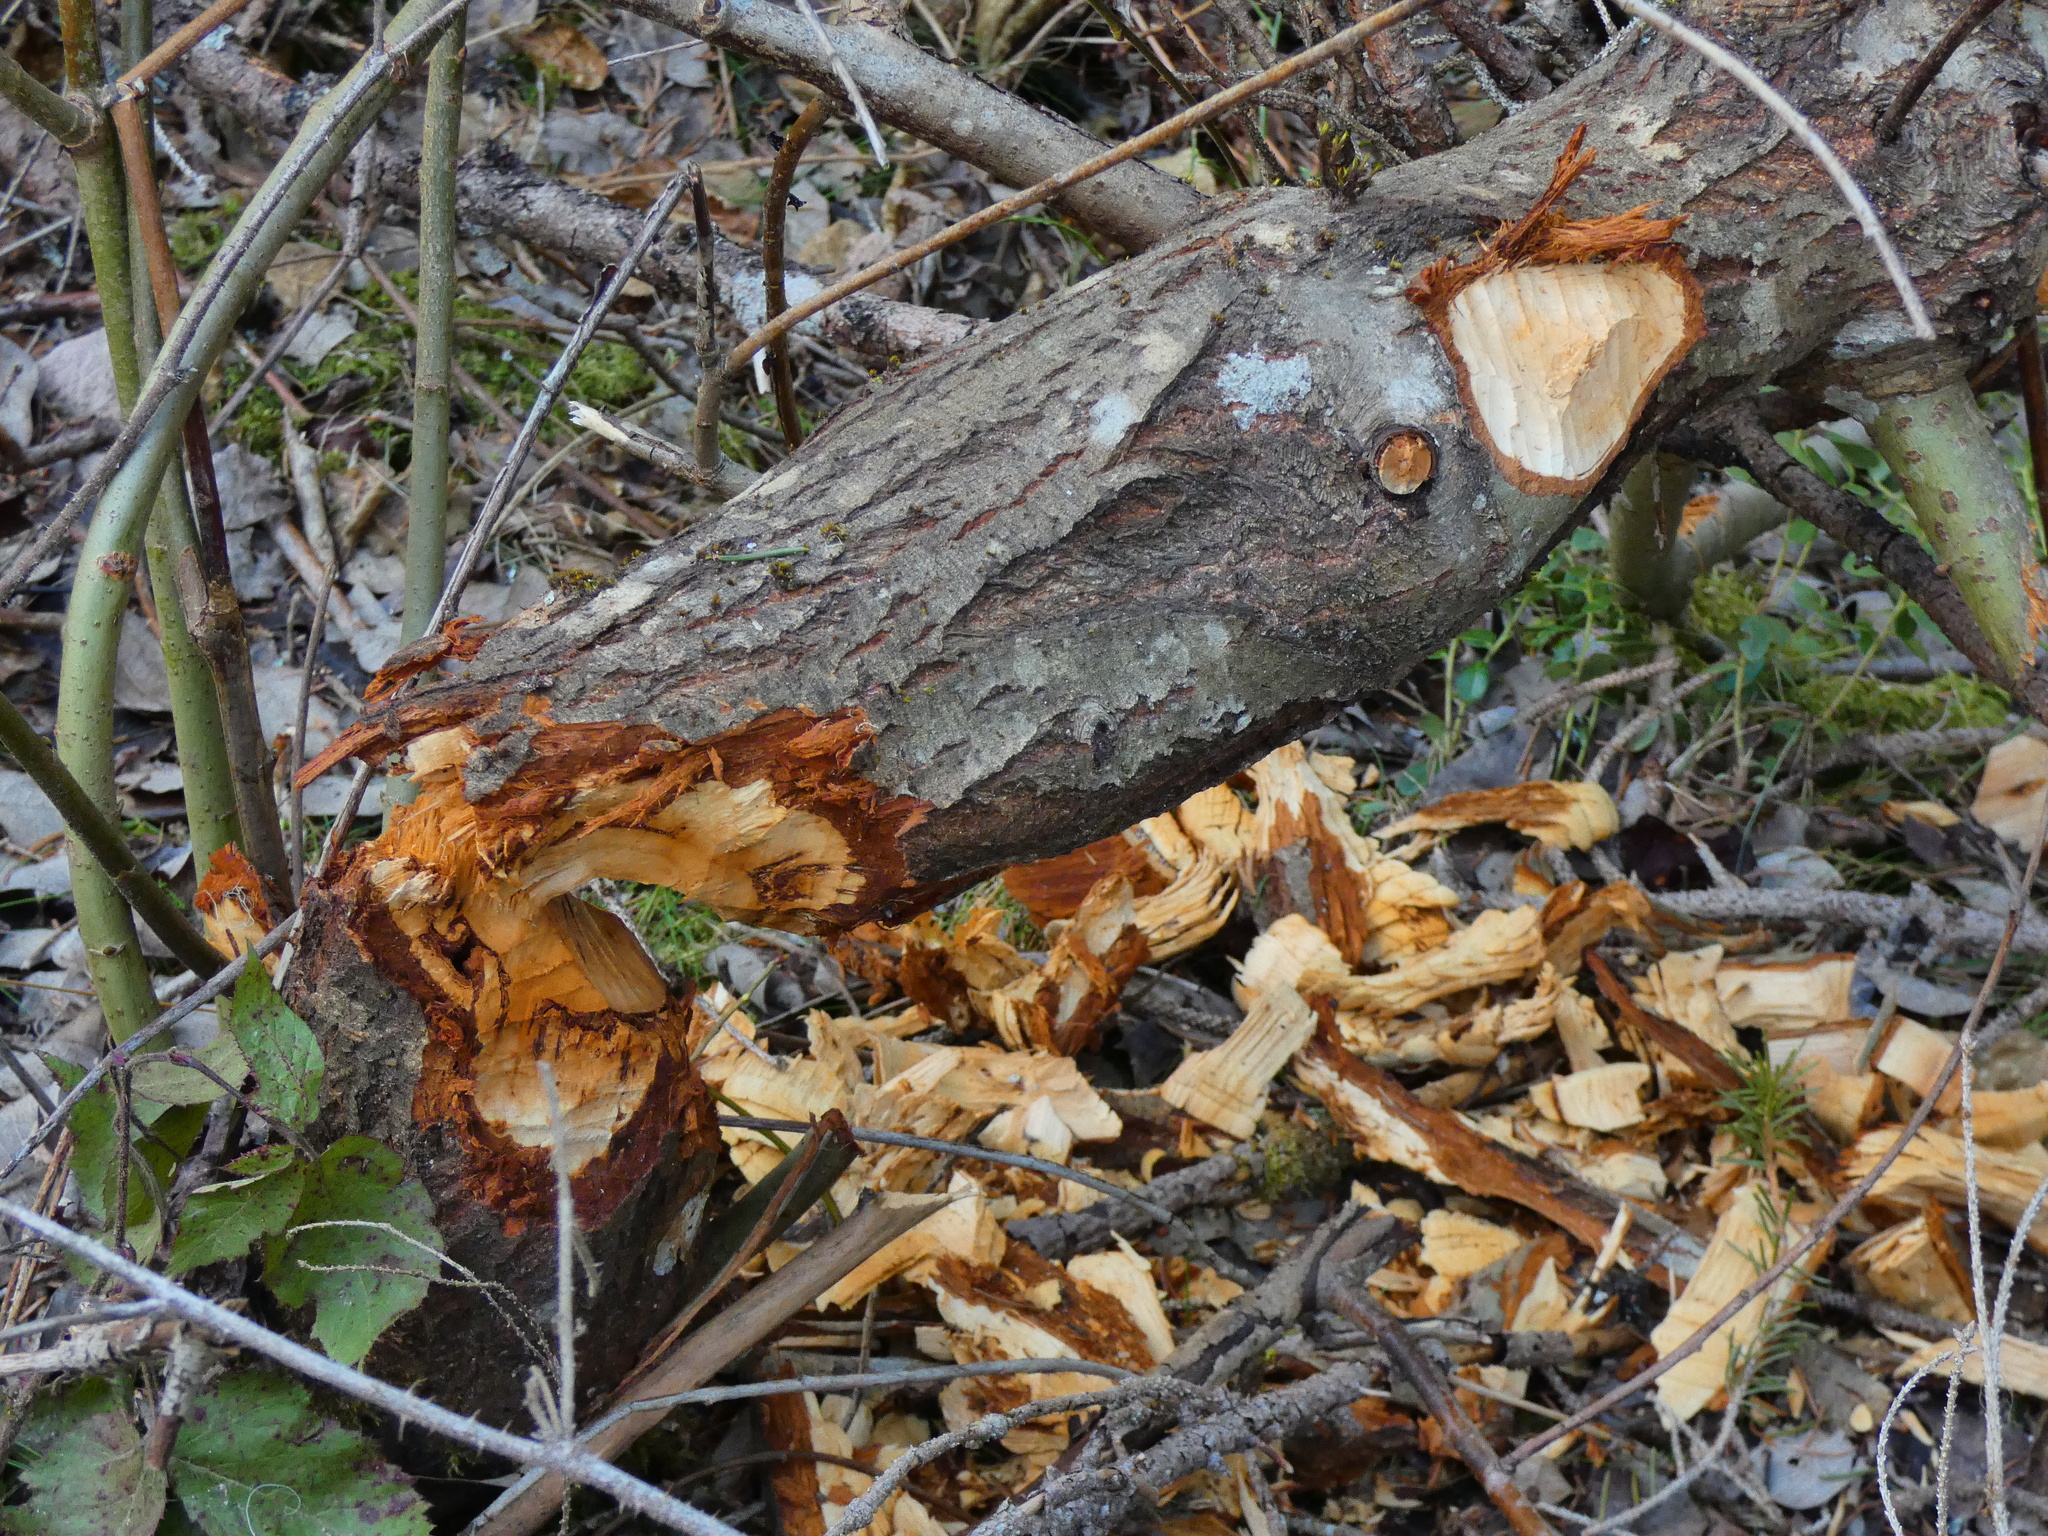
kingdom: Animalia
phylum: Chordata
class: Mammalia
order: Rodentia
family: Castoridae
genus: Castor
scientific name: Castor fiber
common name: Eurasian beaver
